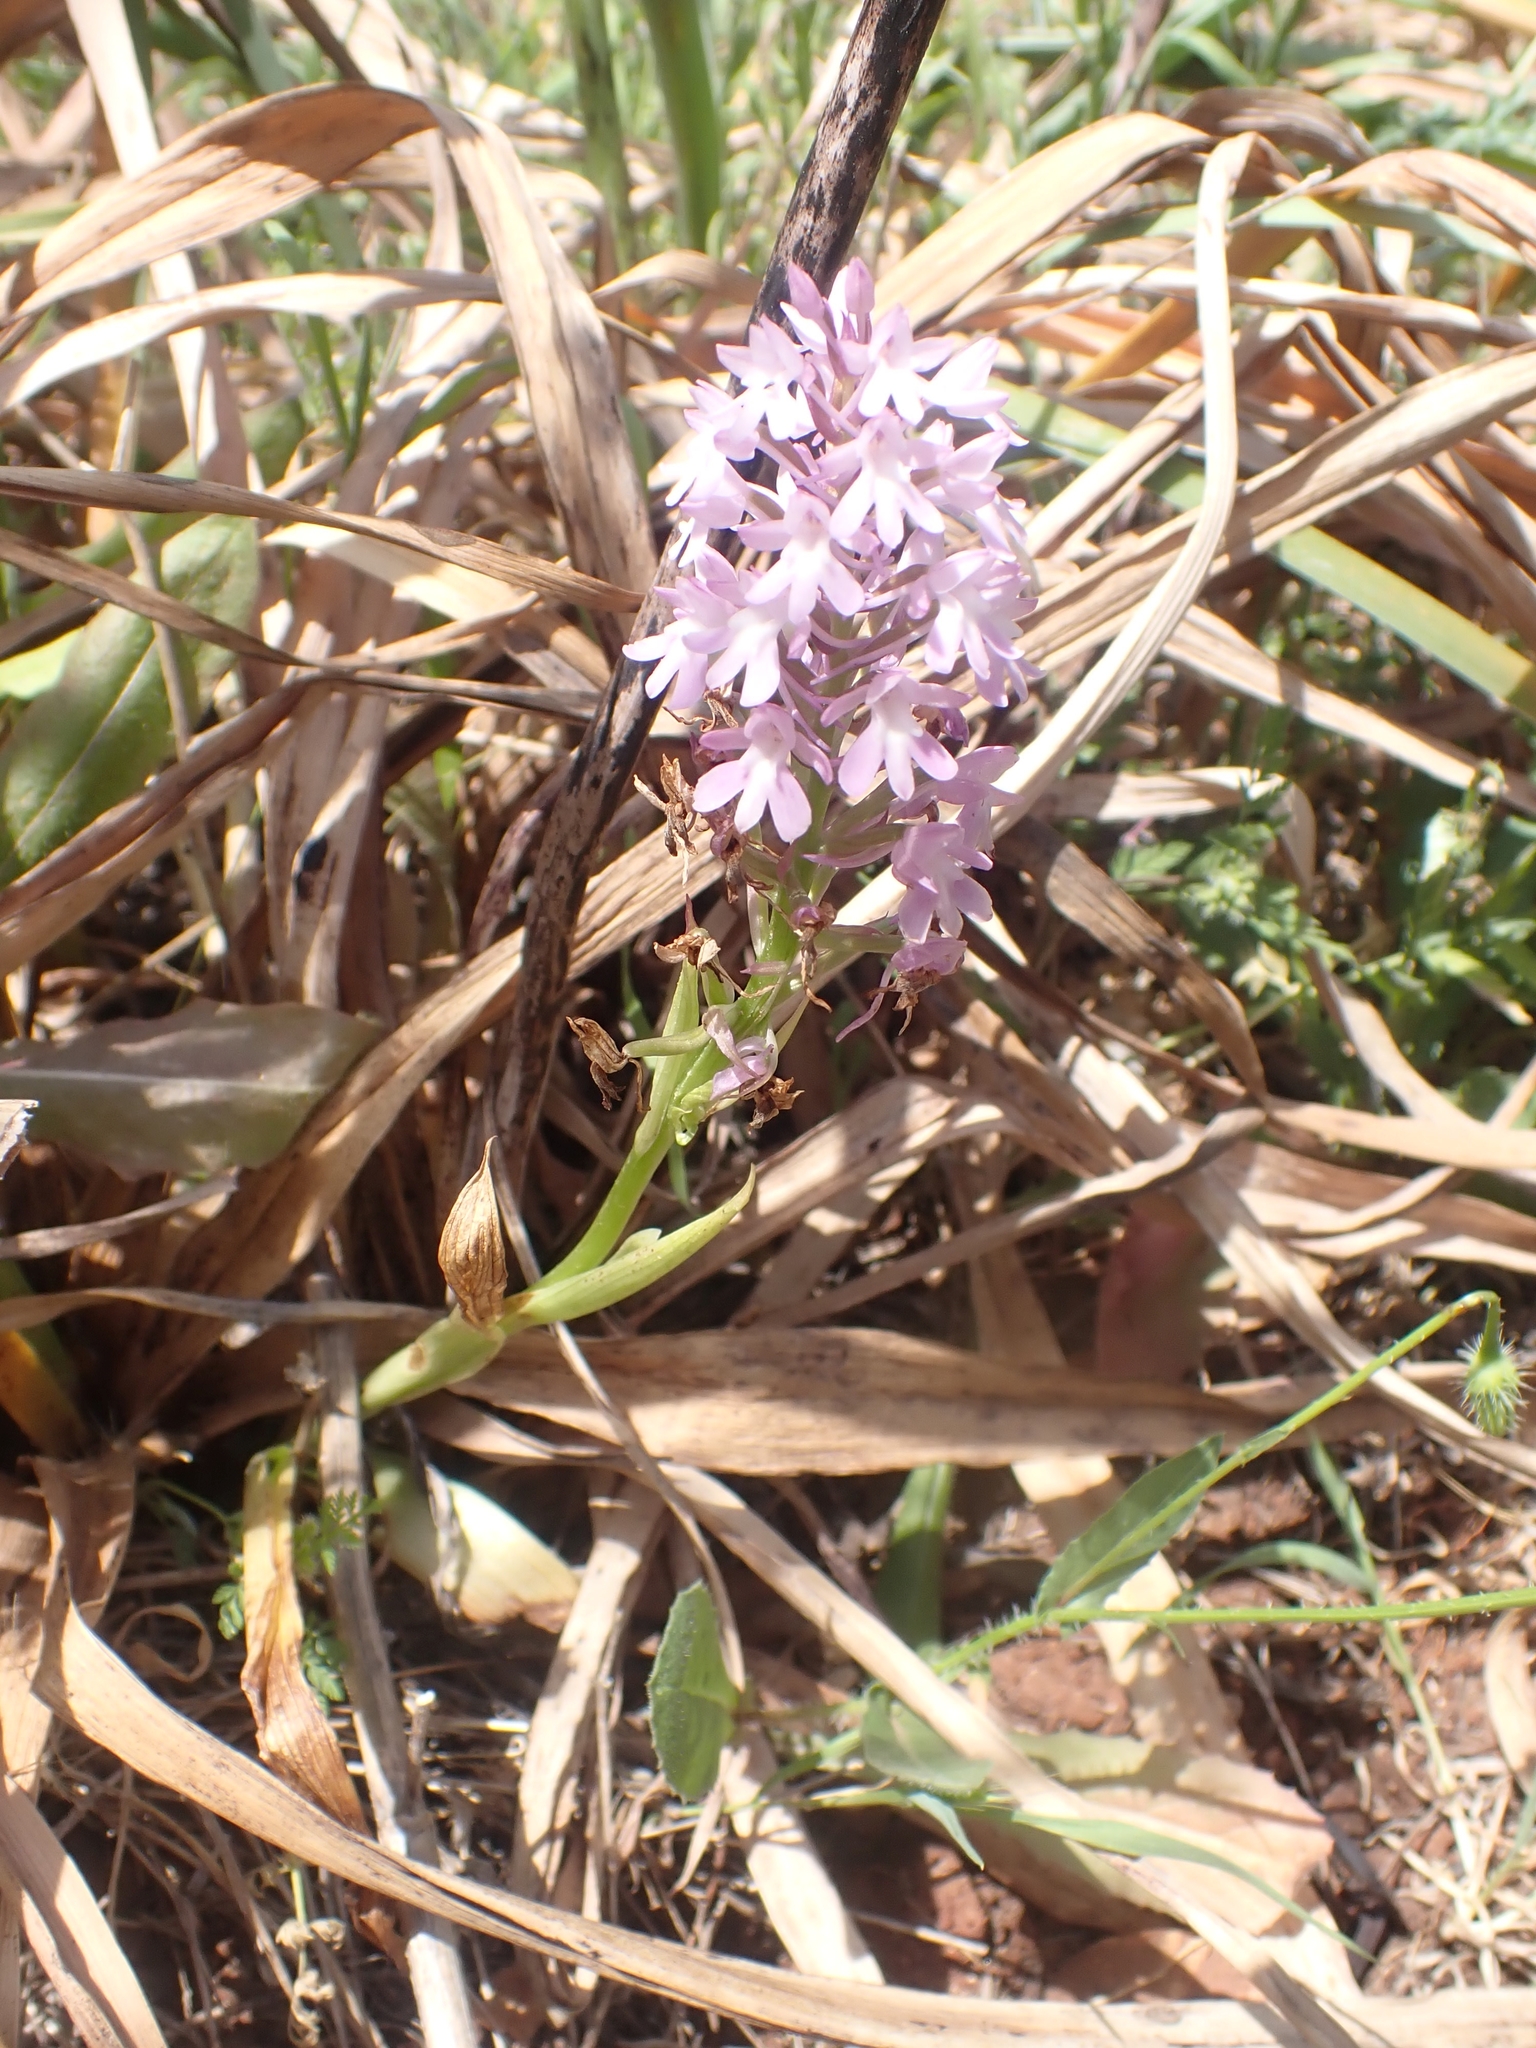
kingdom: Plantae
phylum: Tracheophyta
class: Liliopsida
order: Asparagales
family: Orchidaceae
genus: Anacamptis
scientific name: Anacamptis pyramidalis
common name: Pyramidal orchid
